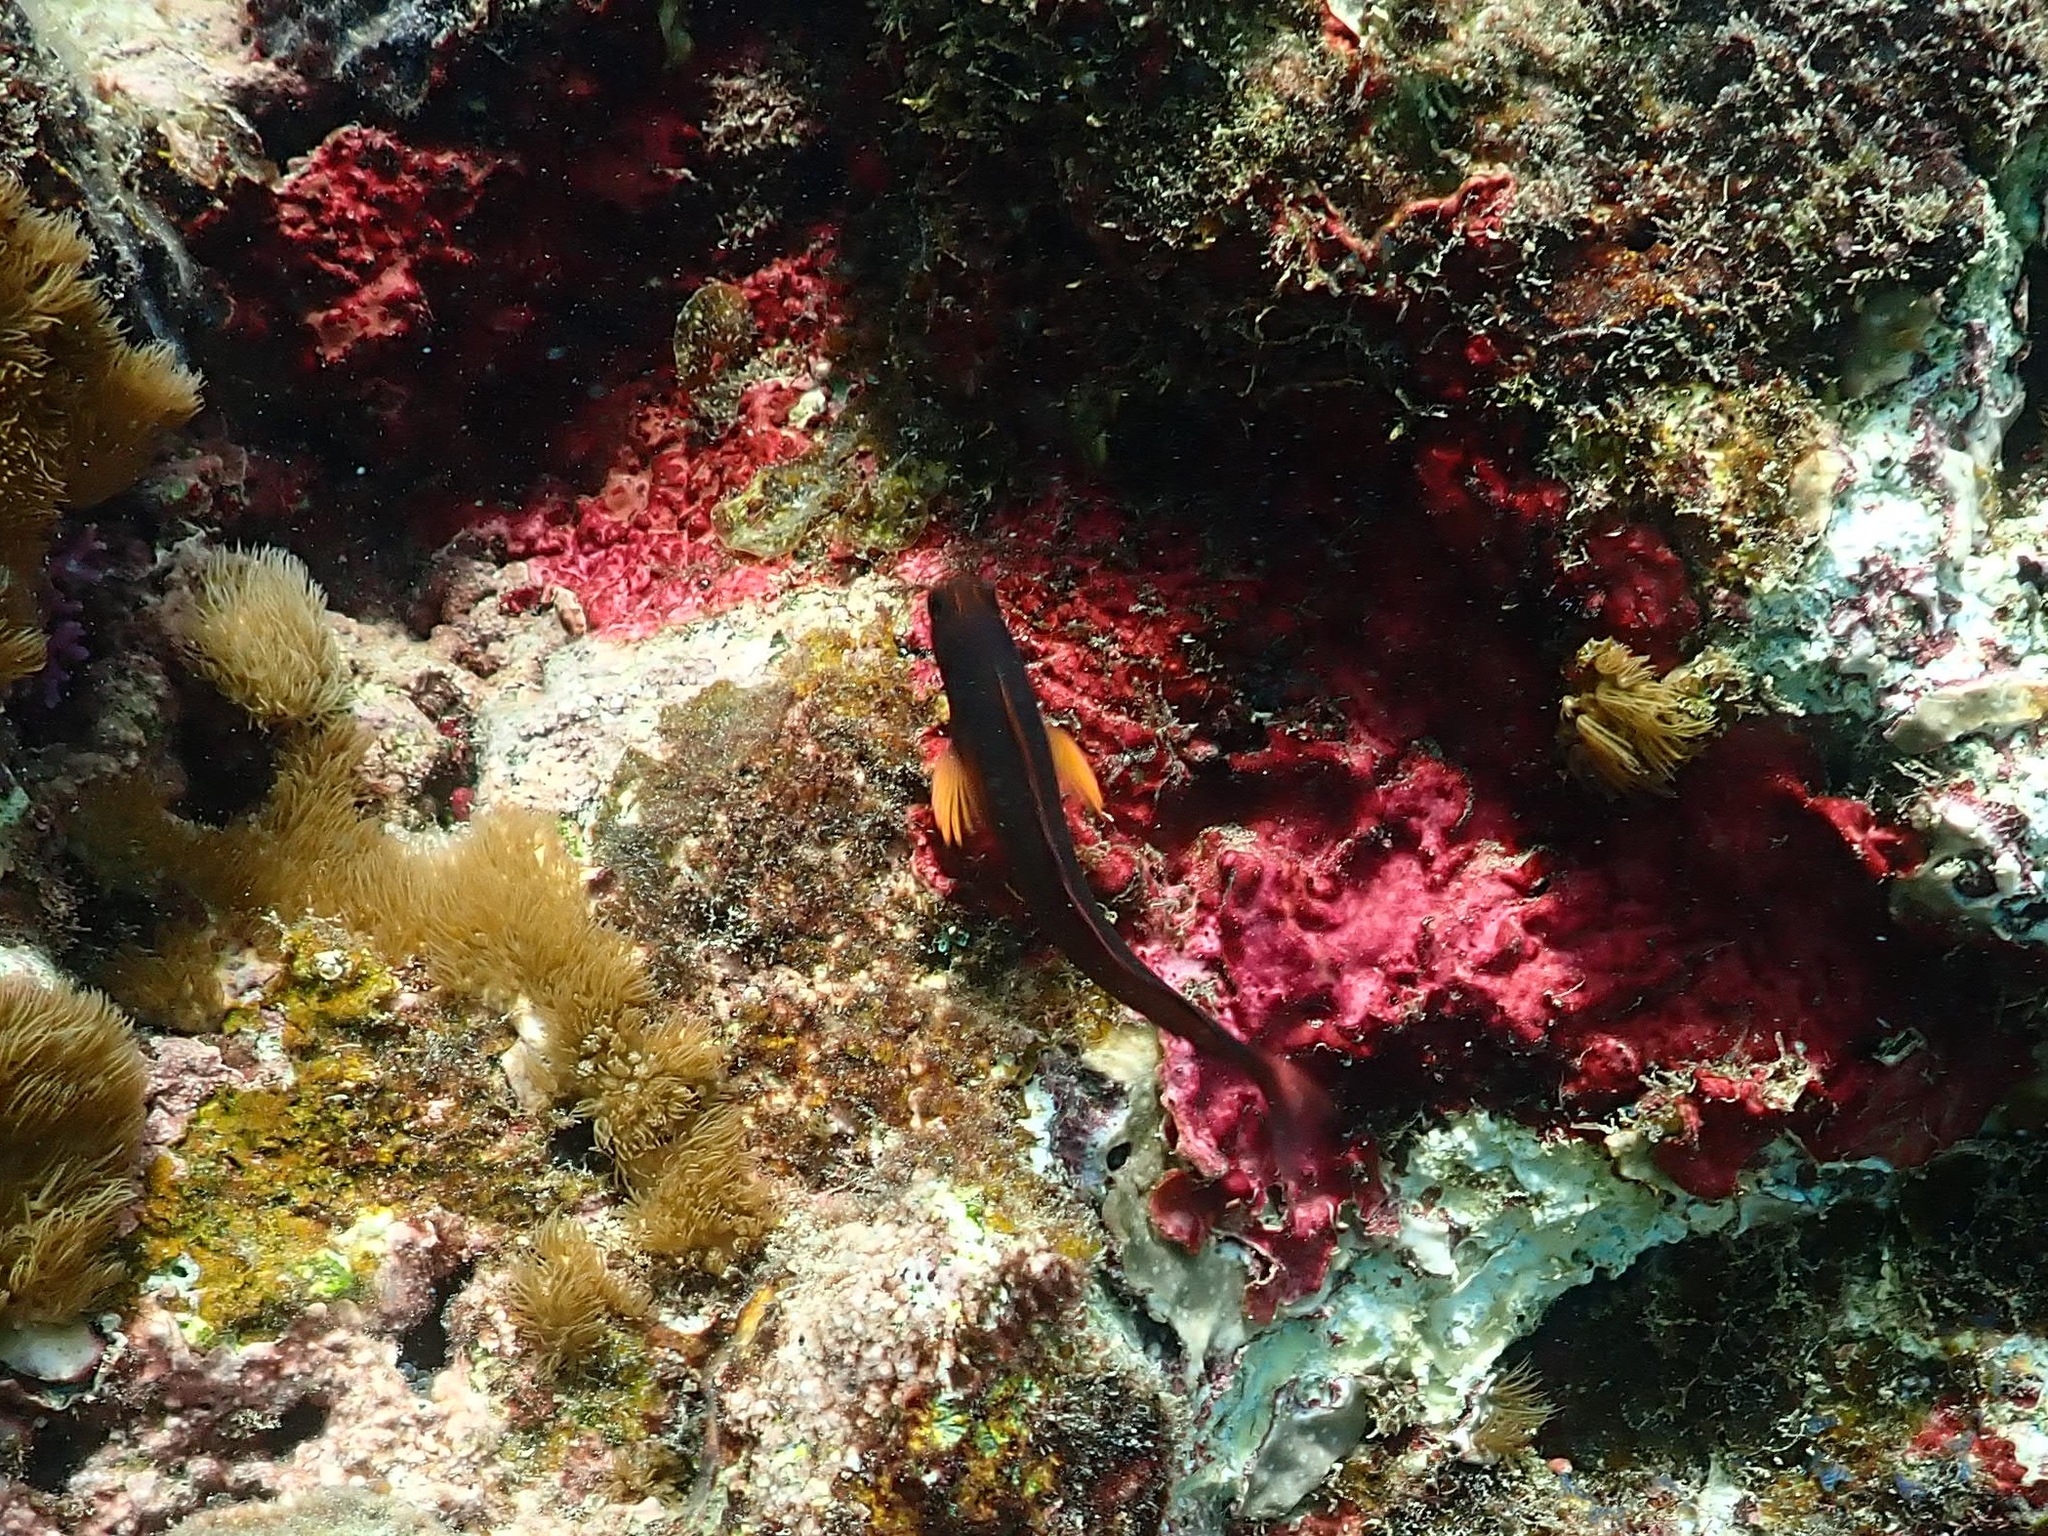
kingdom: Animalia
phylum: Chordata
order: Perciformes
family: Blenniidae
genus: Ophioblennius
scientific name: Ophioblennius macclurei
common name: Redlip blenny
